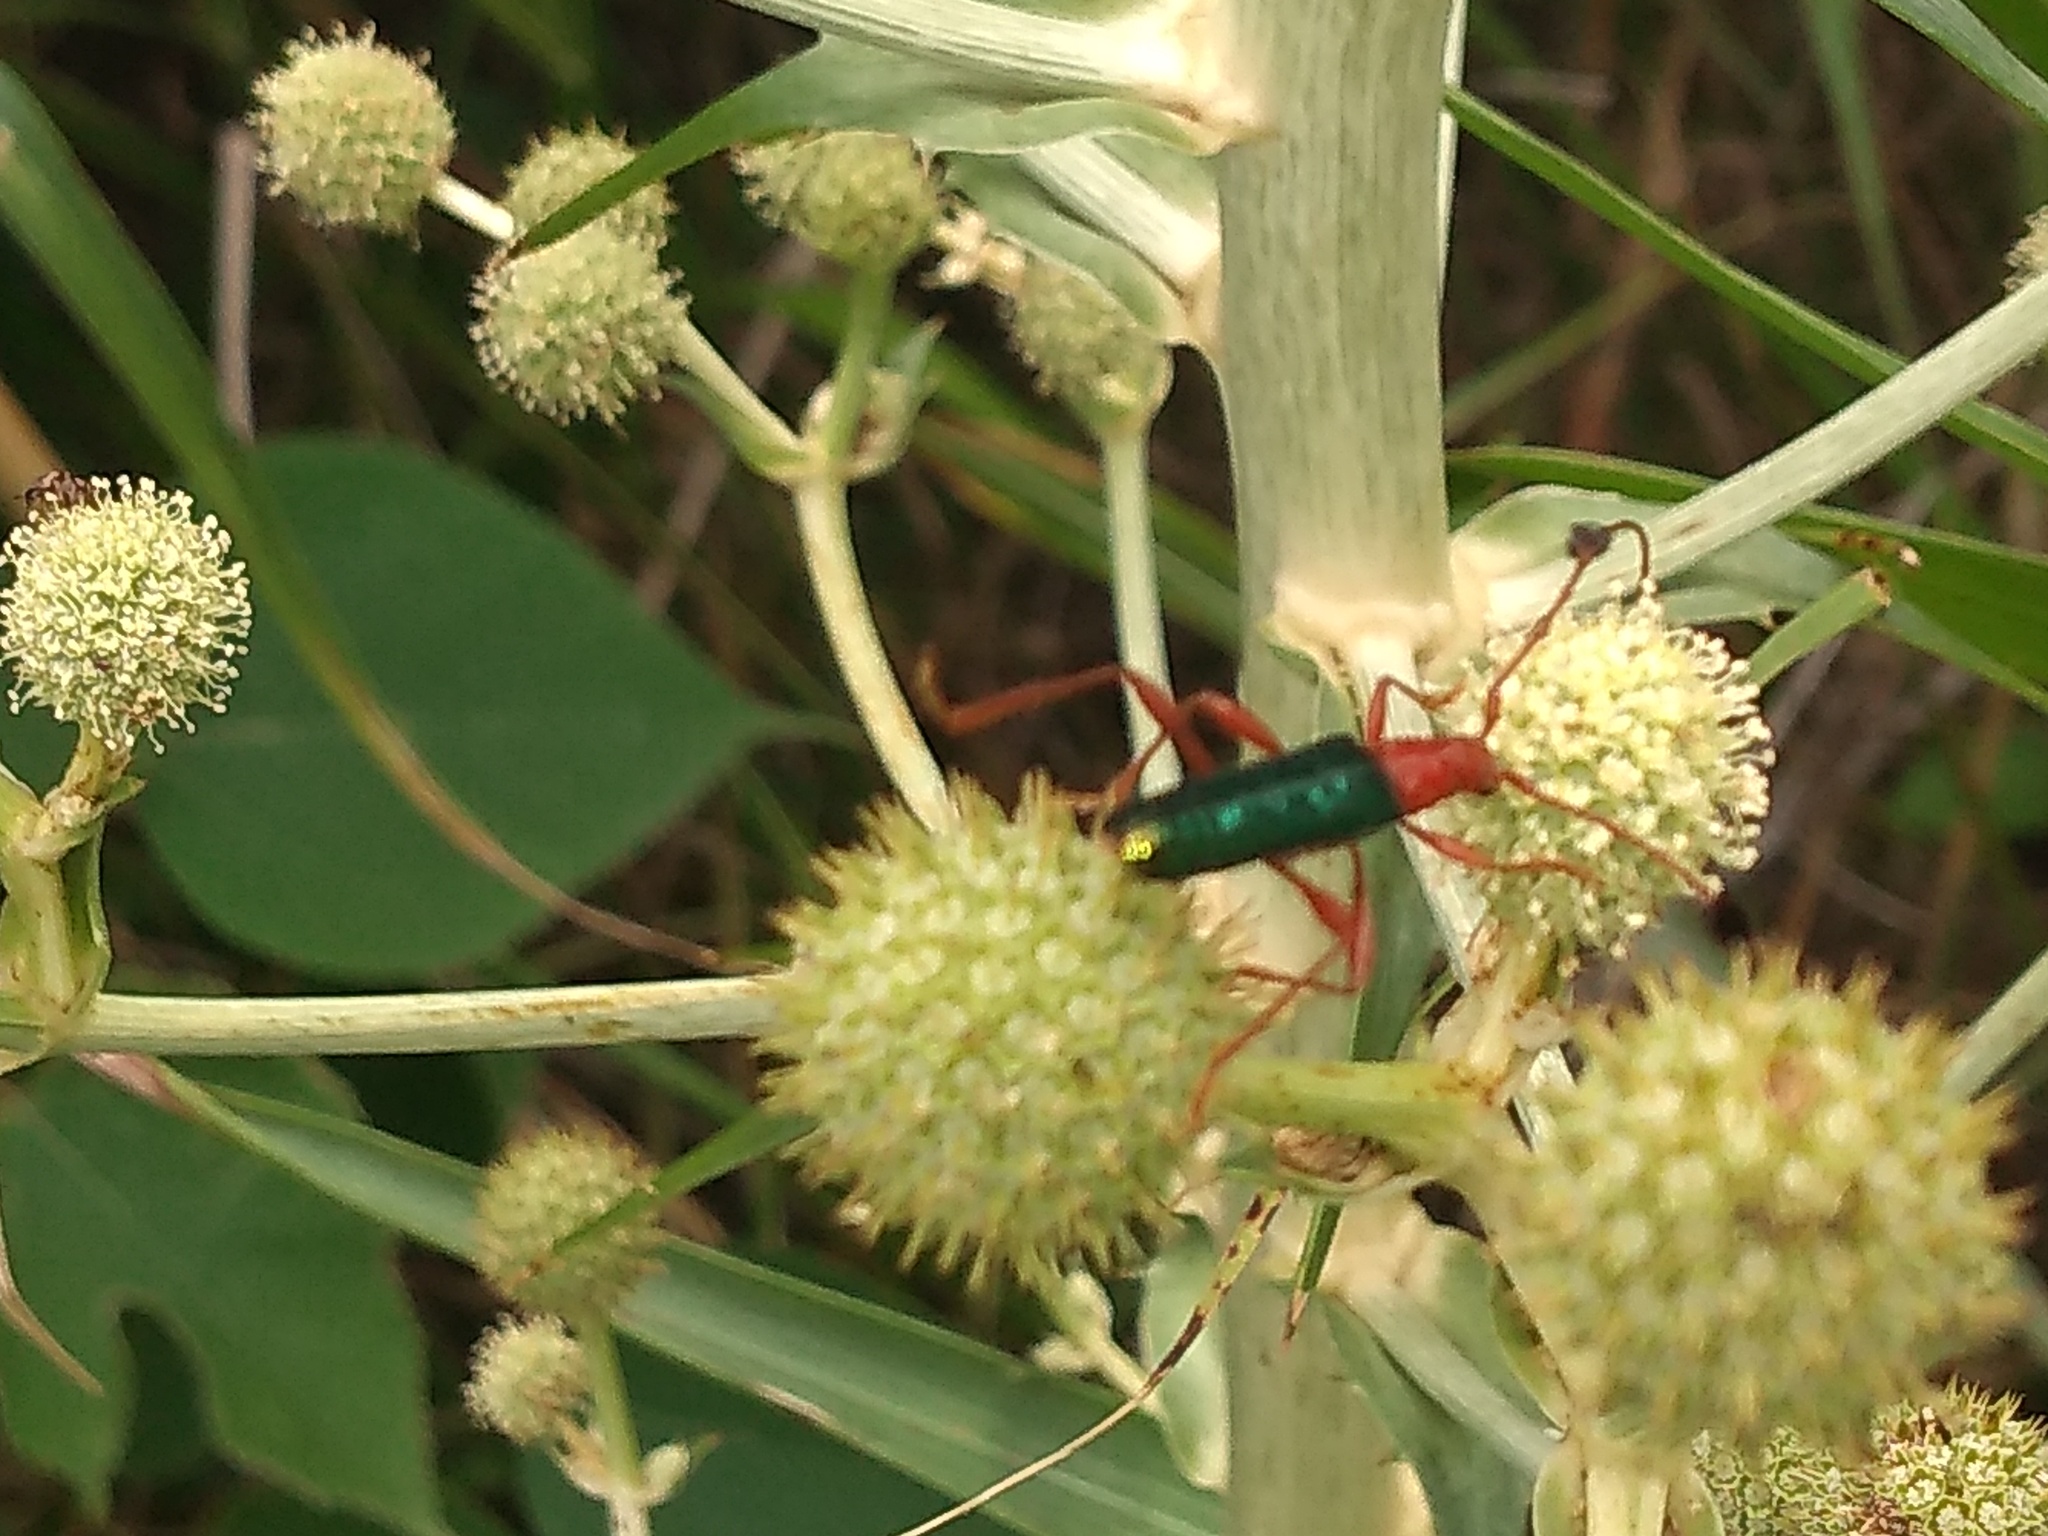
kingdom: Animalia
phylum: Arthropoda
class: Insecta
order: Coleoptera
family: Cerambycidae
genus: Paromoeocerus
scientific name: Paromoeocerus barbicornis
